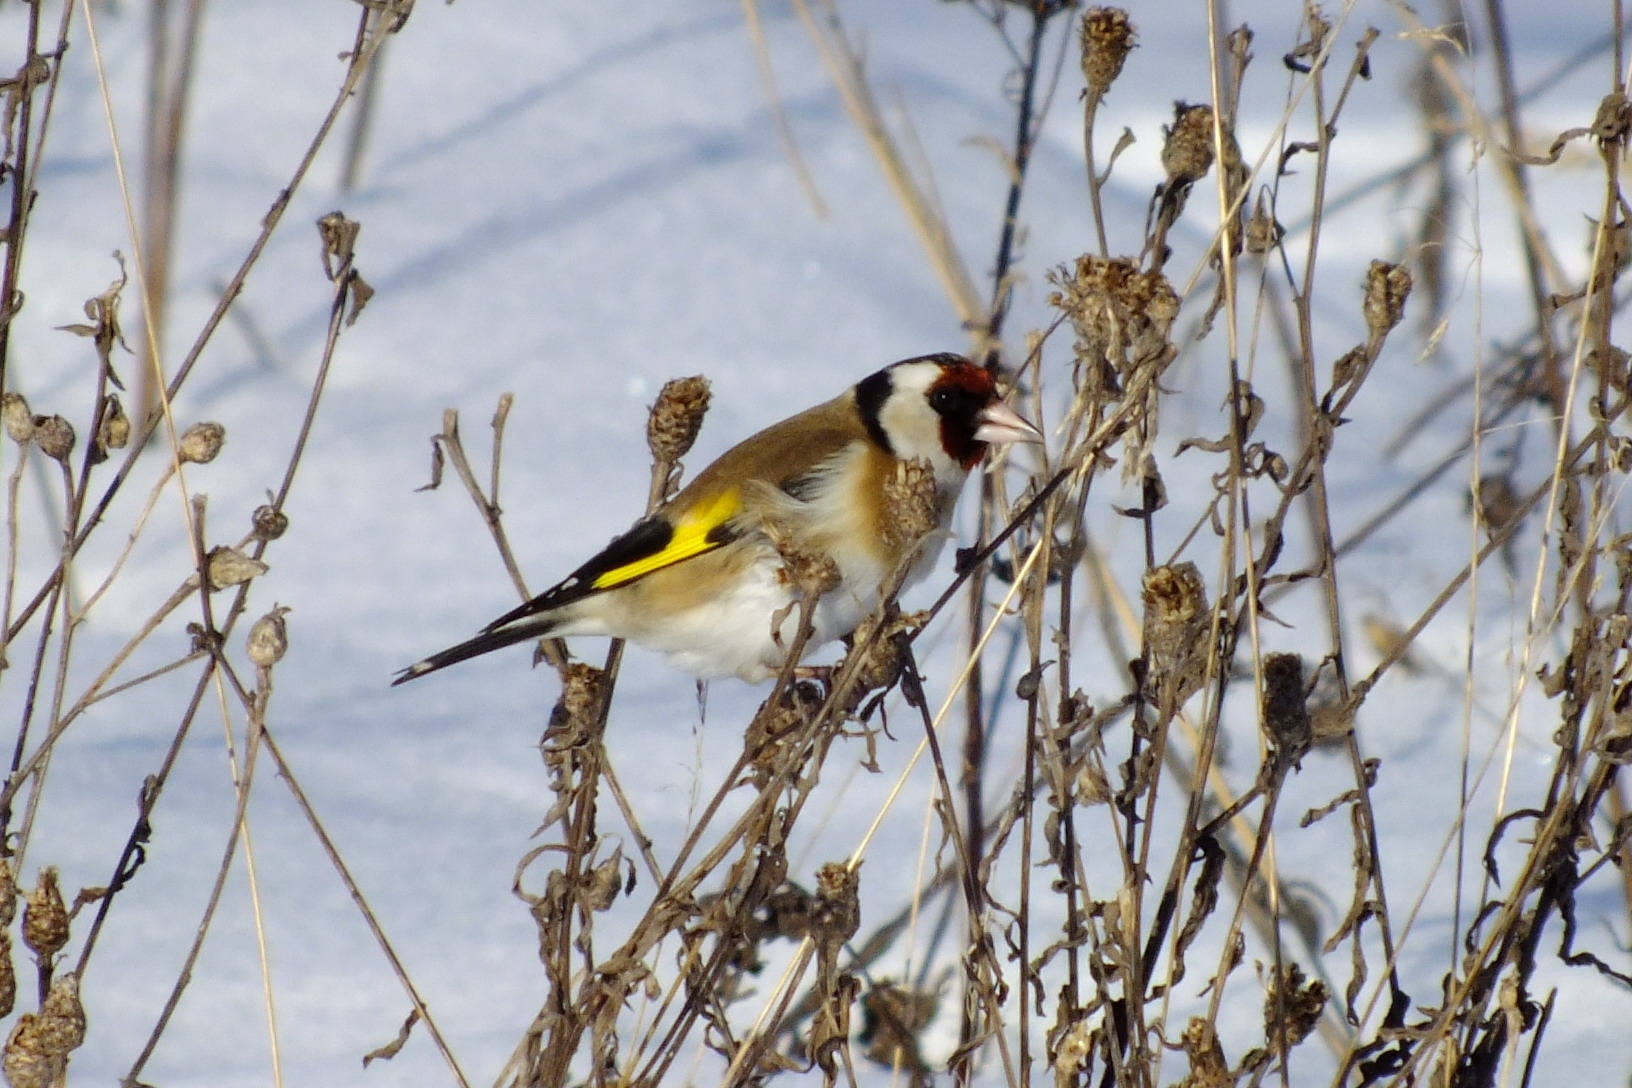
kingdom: Animalia
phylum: Chordata
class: Aves
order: Passeriformes
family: Fringillidae
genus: Carduelis
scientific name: Carduelis carduelis
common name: European goldfinch
